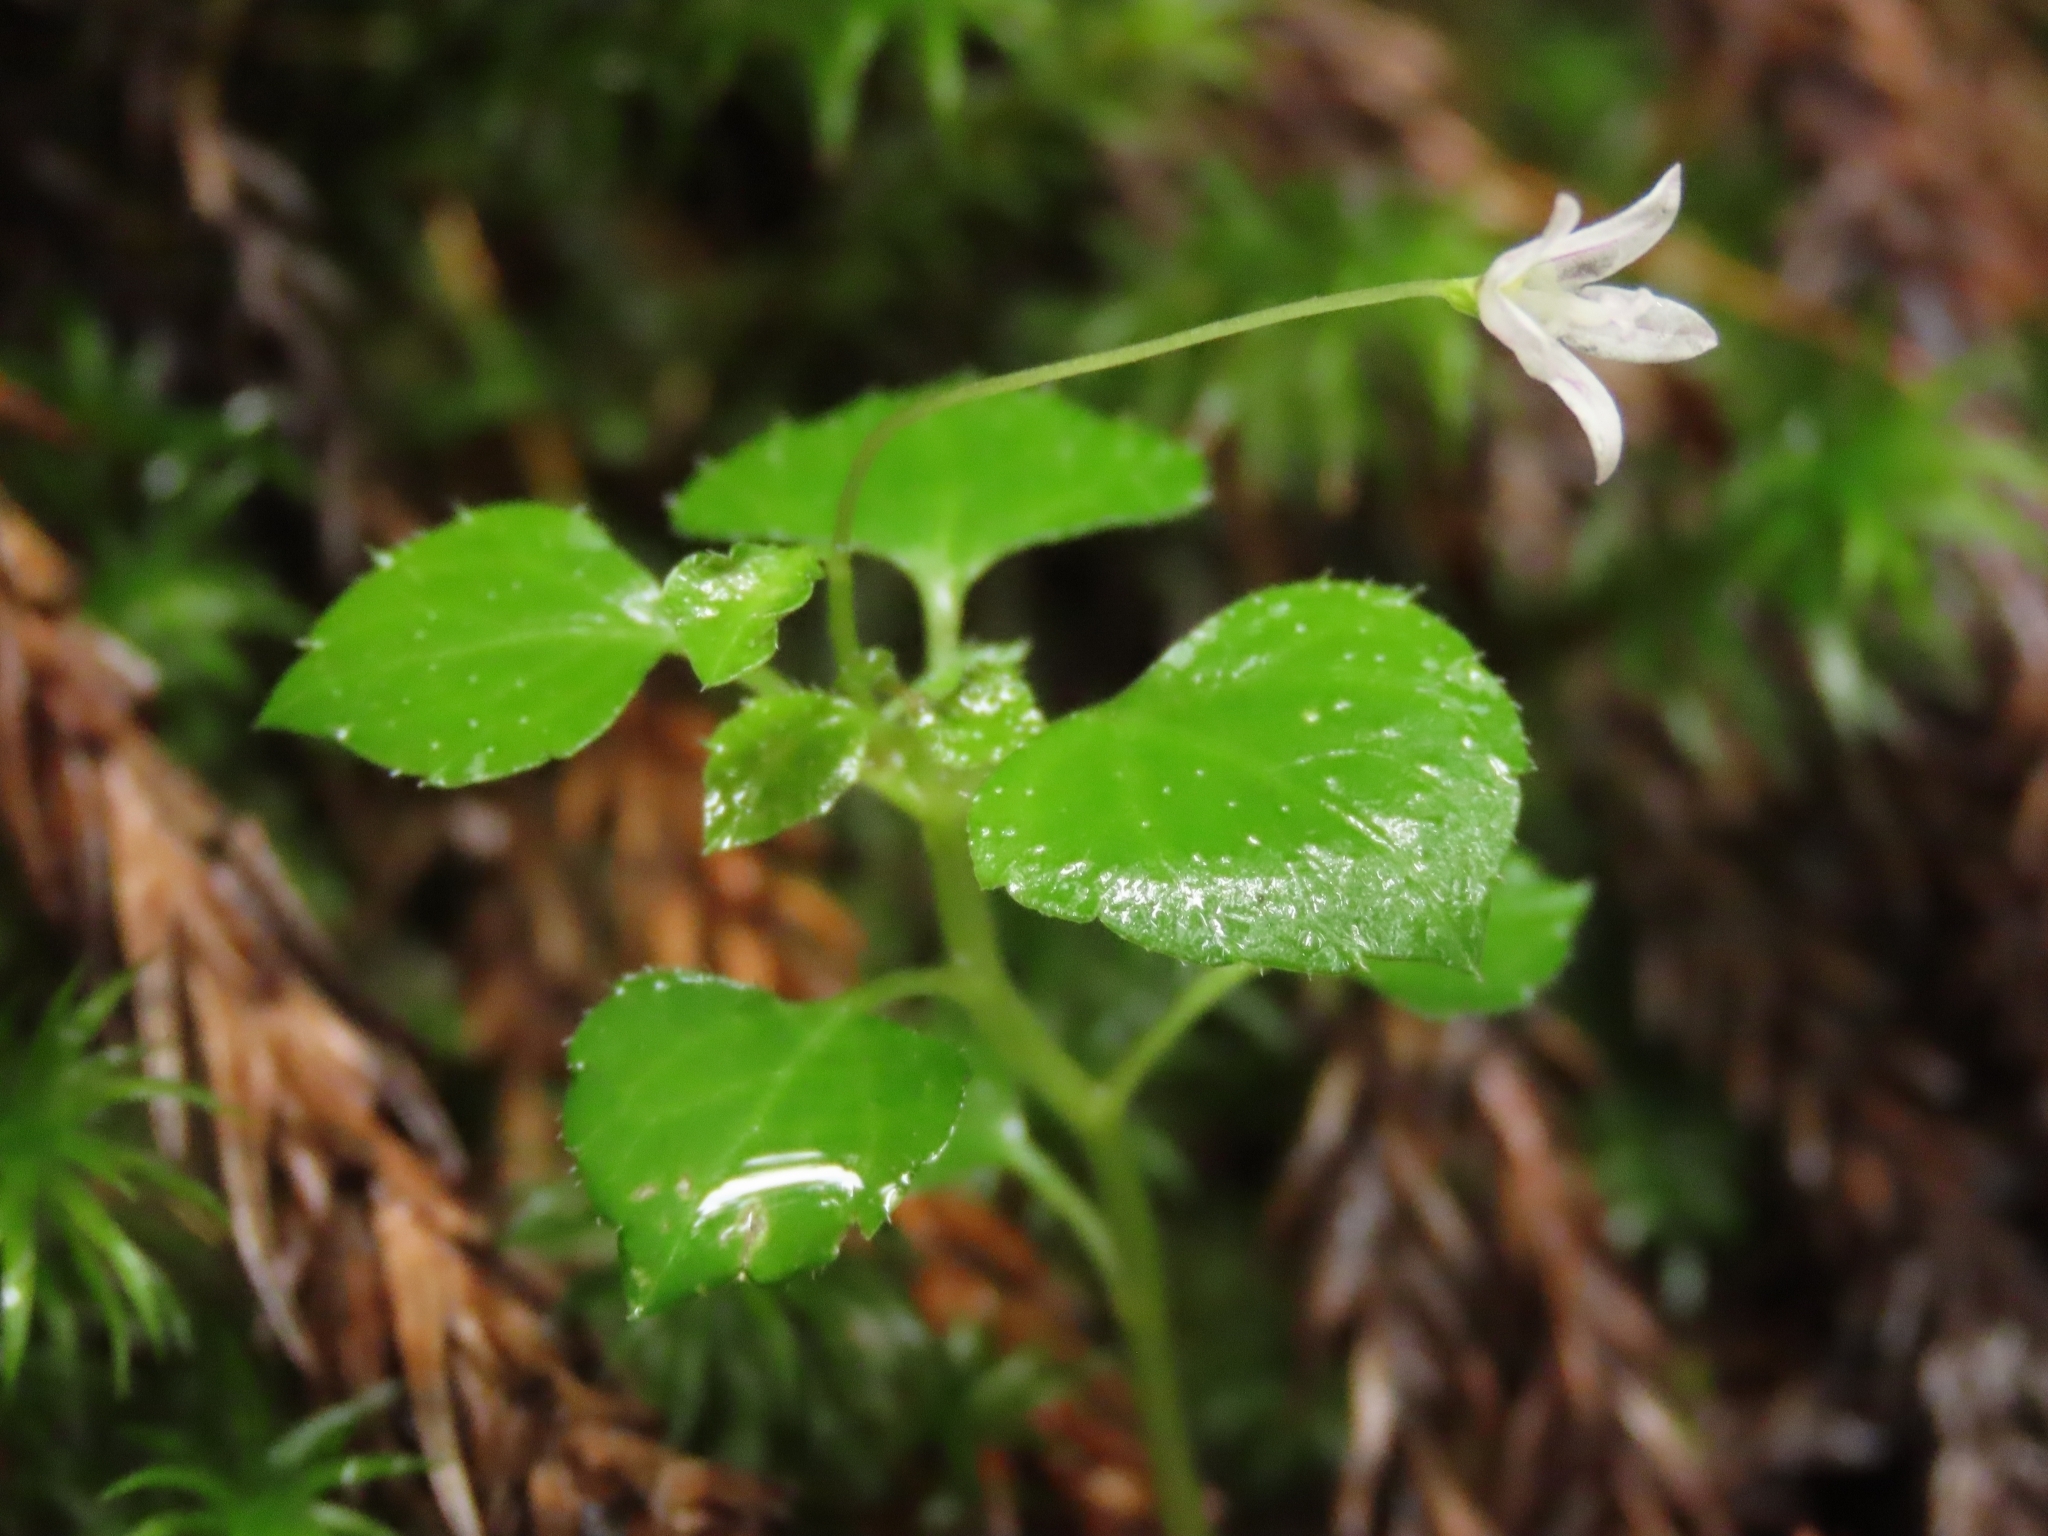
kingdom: Plantae
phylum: Tracheophyta
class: Magnoliopsida
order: Asterales
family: Campanulaceae
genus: Peracarpa
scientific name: Peracarpa carnosa
